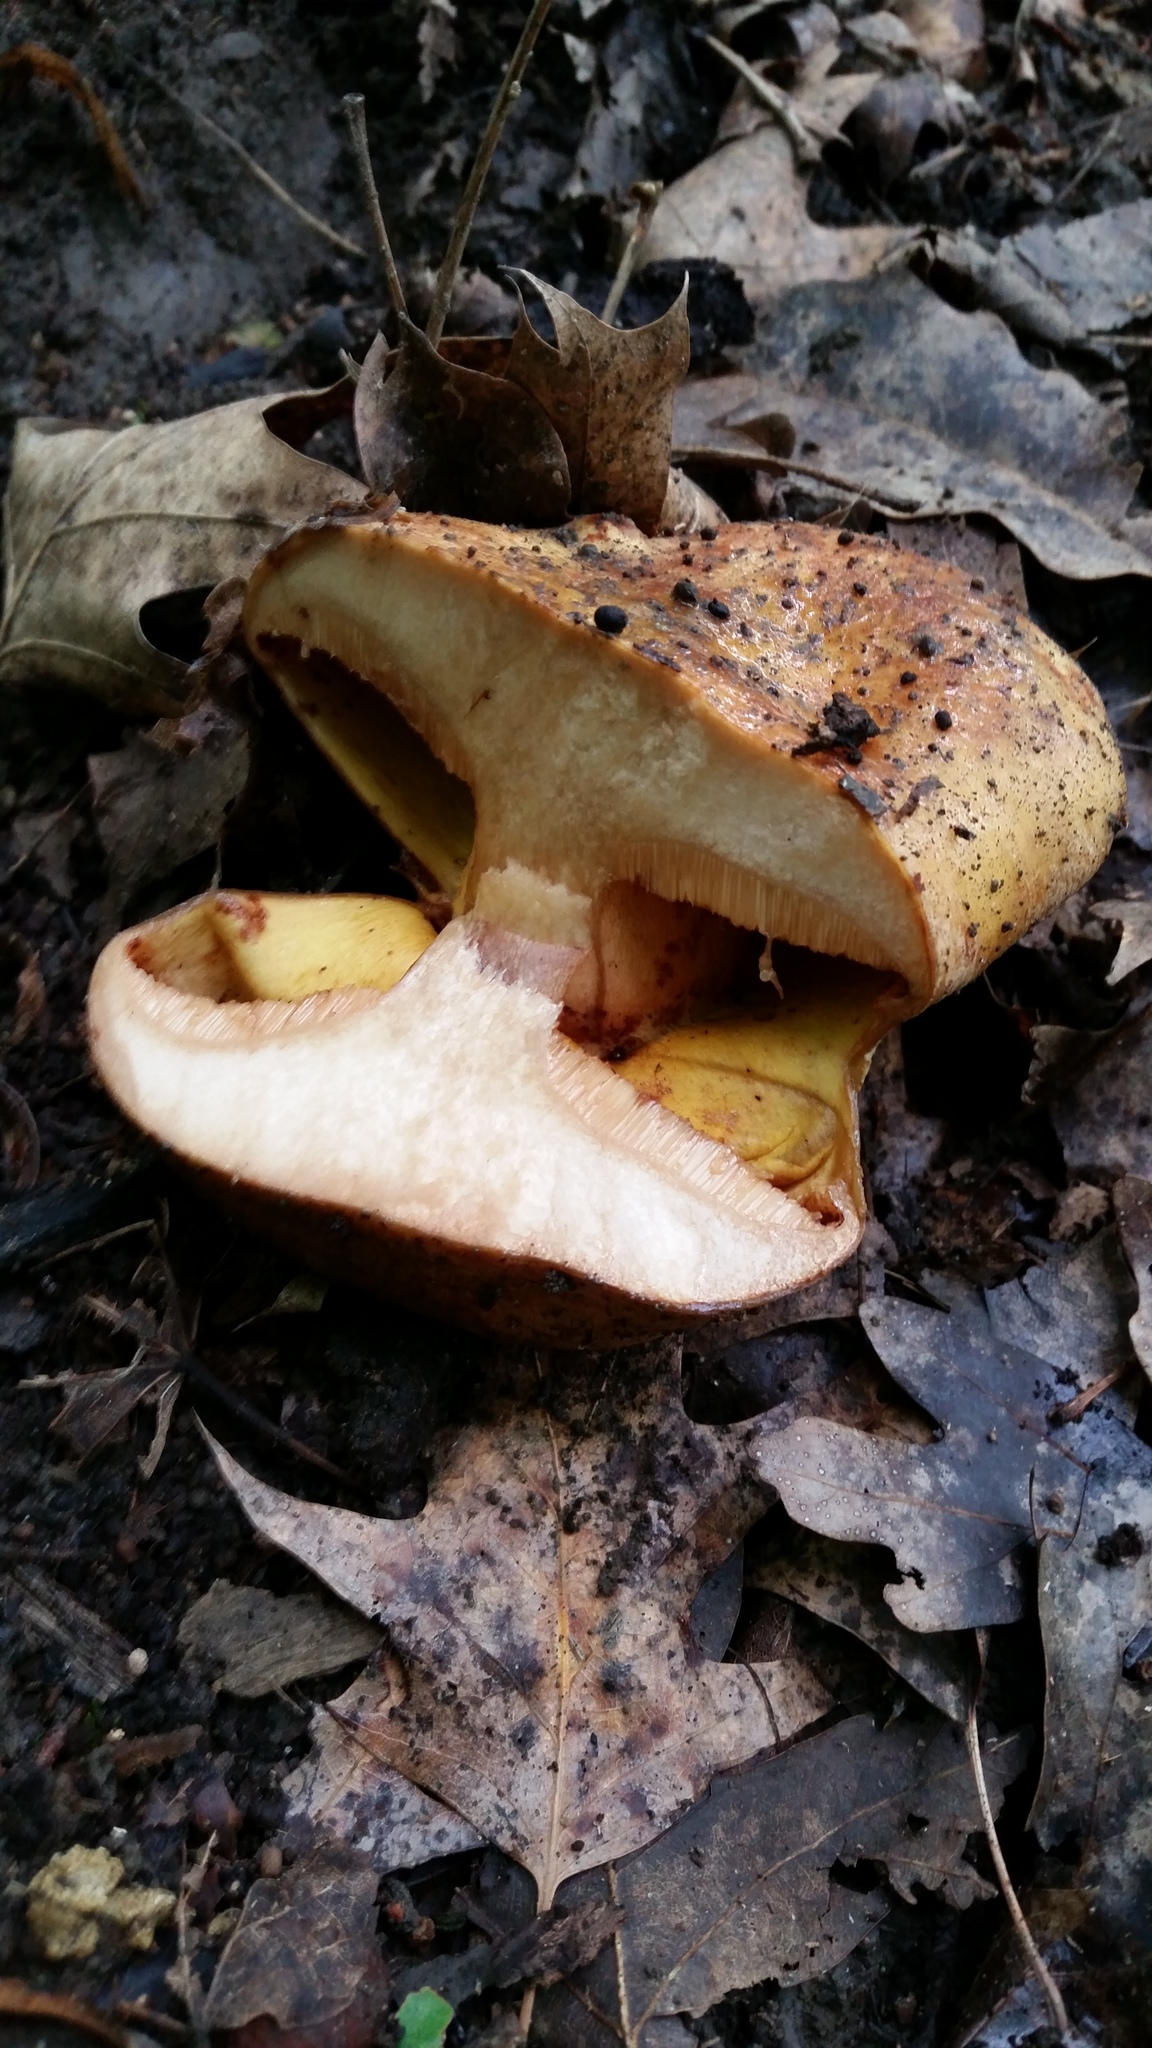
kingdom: Fungi
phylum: Basidiomycota
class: Agaricomycetes
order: Boletales
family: Paxillaceae
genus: Paragyrodon
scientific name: Paragyrodon sphaerosporus
